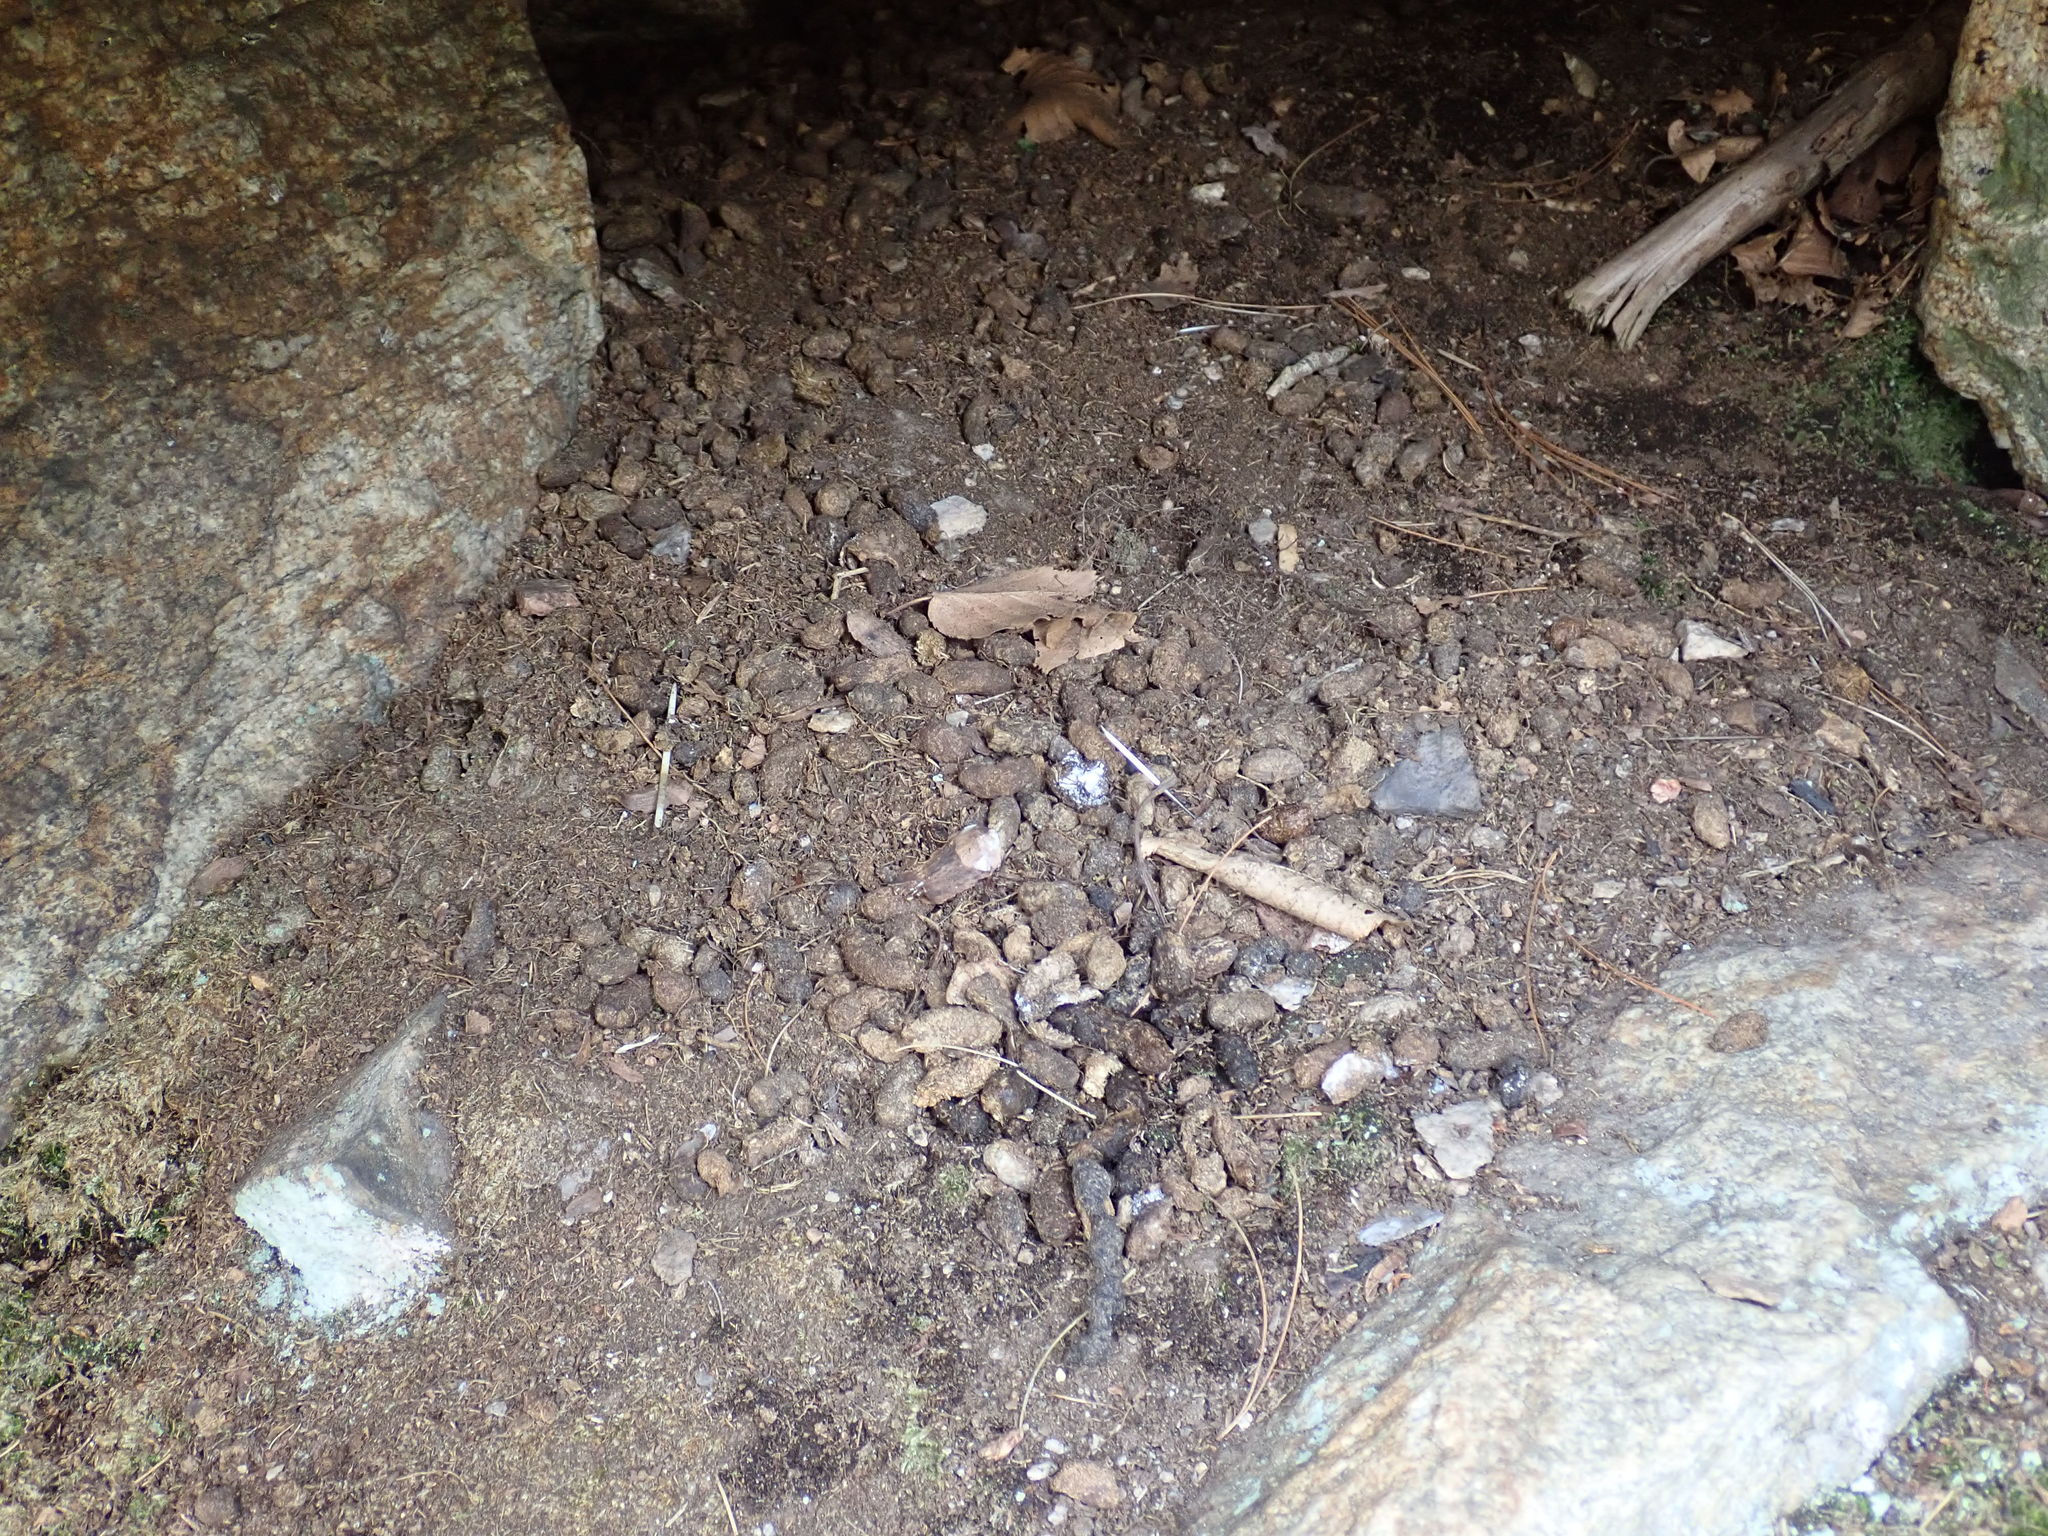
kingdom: Animalia
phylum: Chordata
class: Mammalia
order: Rodentia
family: Erethizontidae
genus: Erethizon
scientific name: Erethizon dorsatus
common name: North american porcupine
